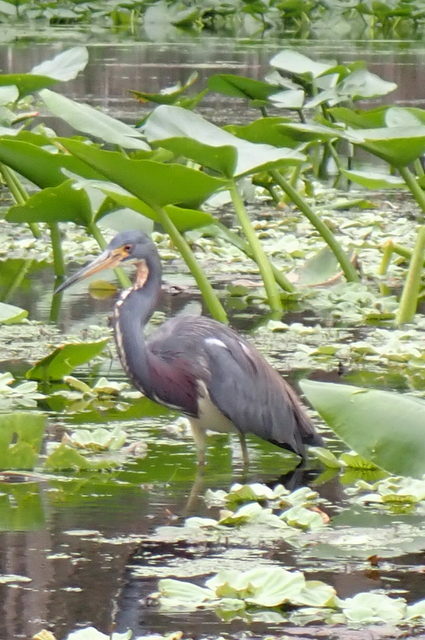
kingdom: Animalia
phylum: Chordata
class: Aves
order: Pelecaniformes
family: Ardeidae
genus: Egretta
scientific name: Egretta tricolor
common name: Tricolored heron
